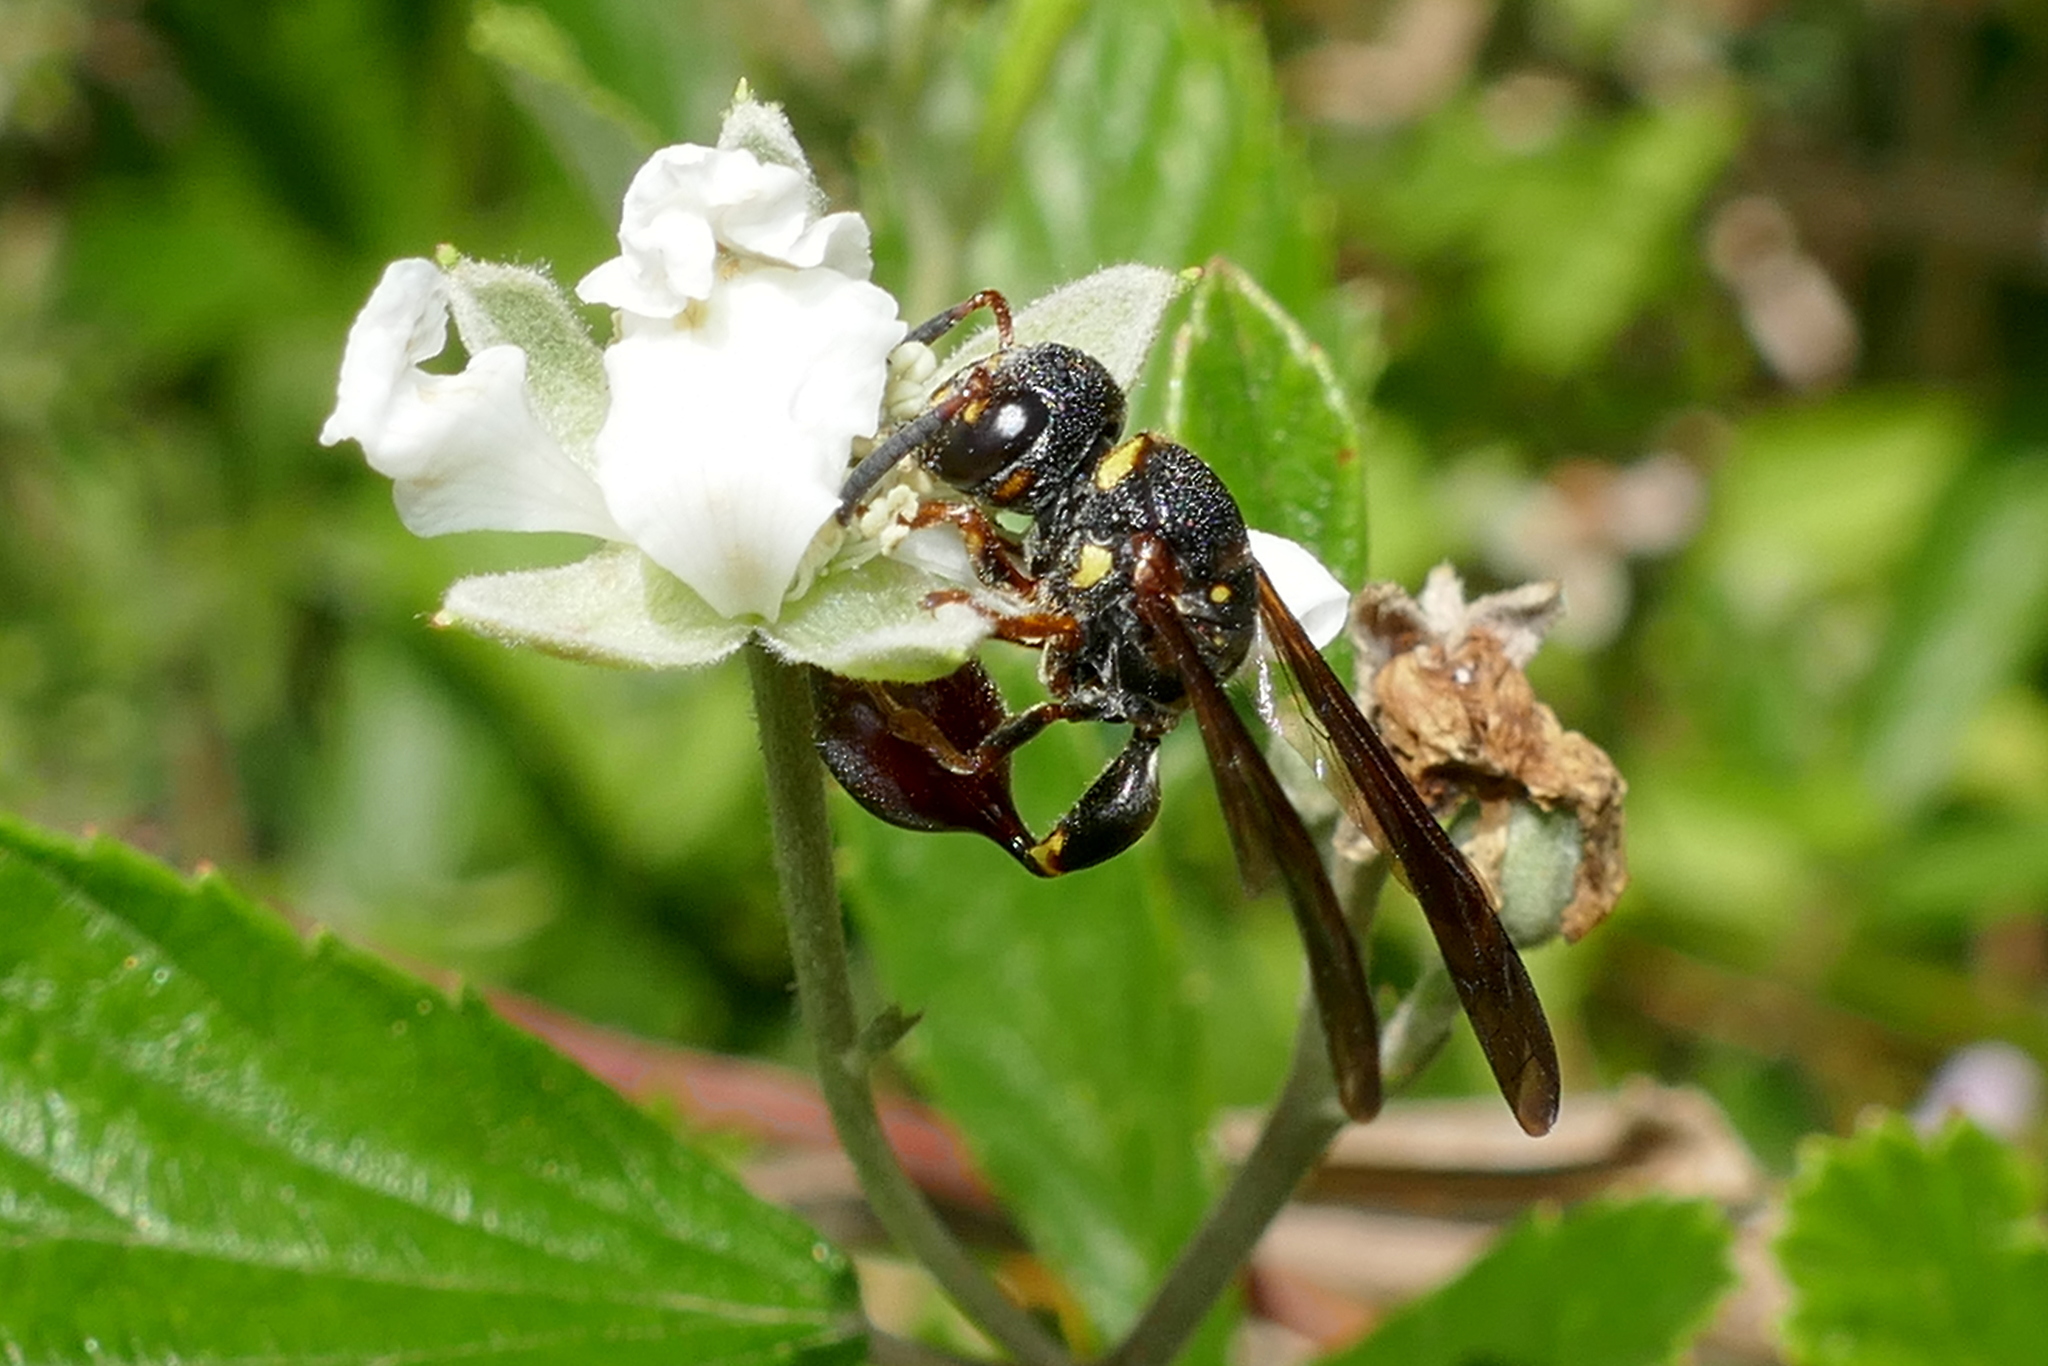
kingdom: Animalia
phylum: Arthropoda
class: Insecta
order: Hymenoptera
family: Eumenidae
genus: Zethus
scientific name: Zethus slossonae
